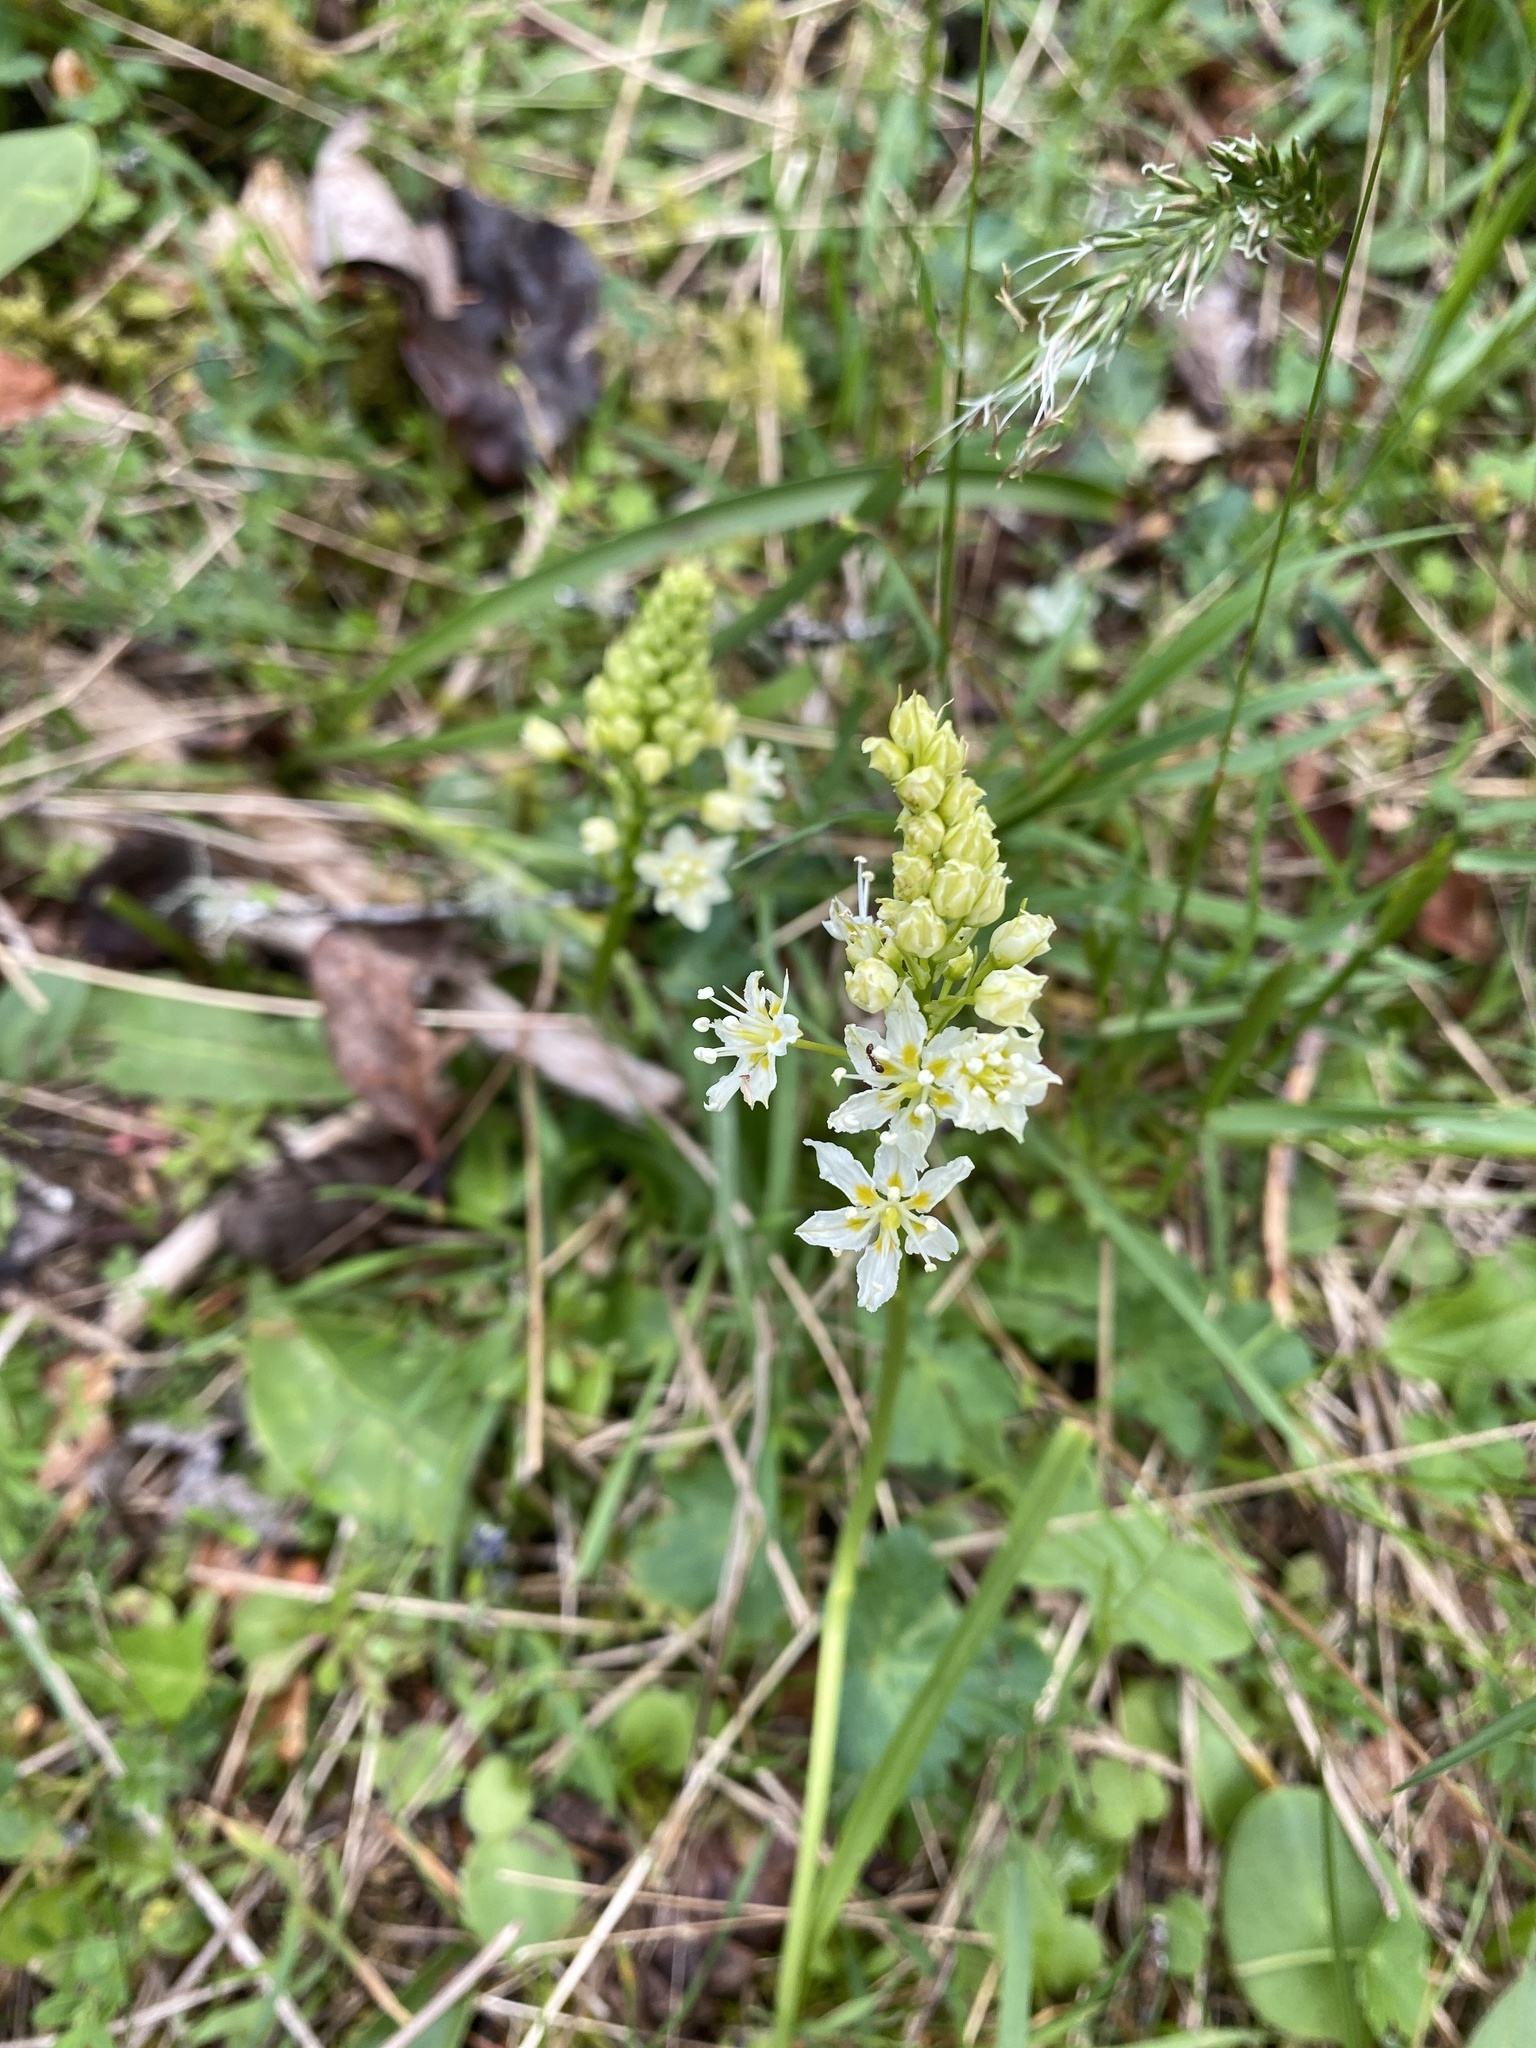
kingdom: Plantae
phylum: Tracheophyta
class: Liliopsida
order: Liliales
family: Melanthiaceae
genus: Toxicoscordion
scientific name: Toxicoscordion venenosum
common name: Meadow death camas
